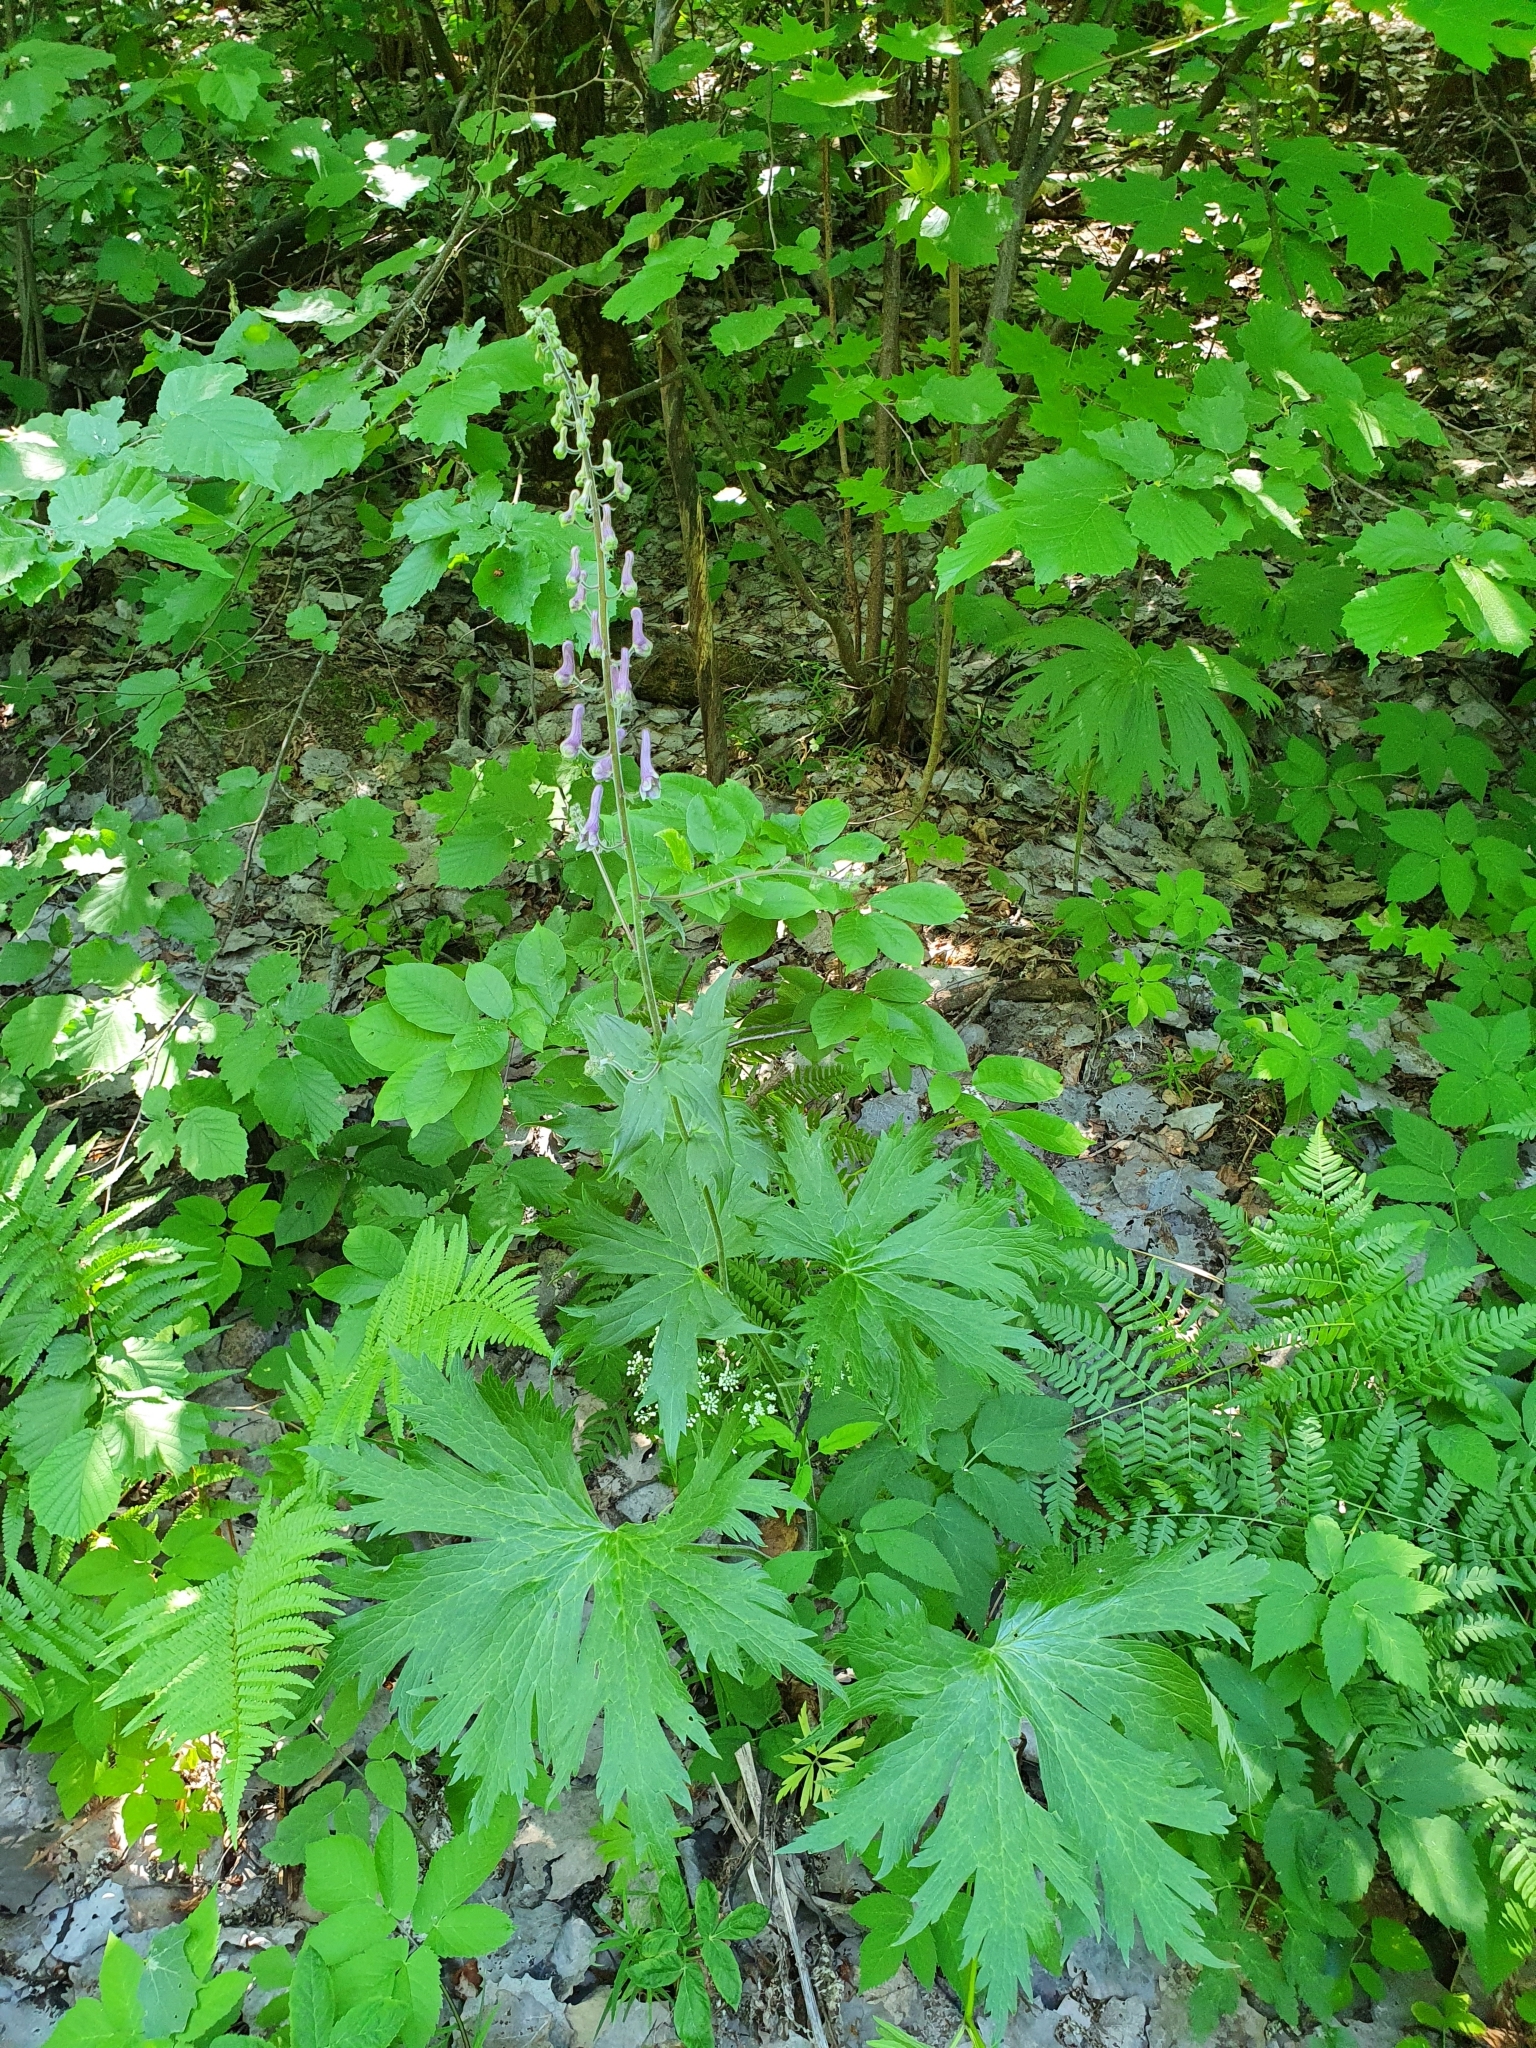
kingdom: Plantae
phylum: Tracheophyta
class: Magnoliopsida
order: Ranunculales
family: Ranunculaceae
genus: Aconitum
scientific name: Aconitum septentrionale
